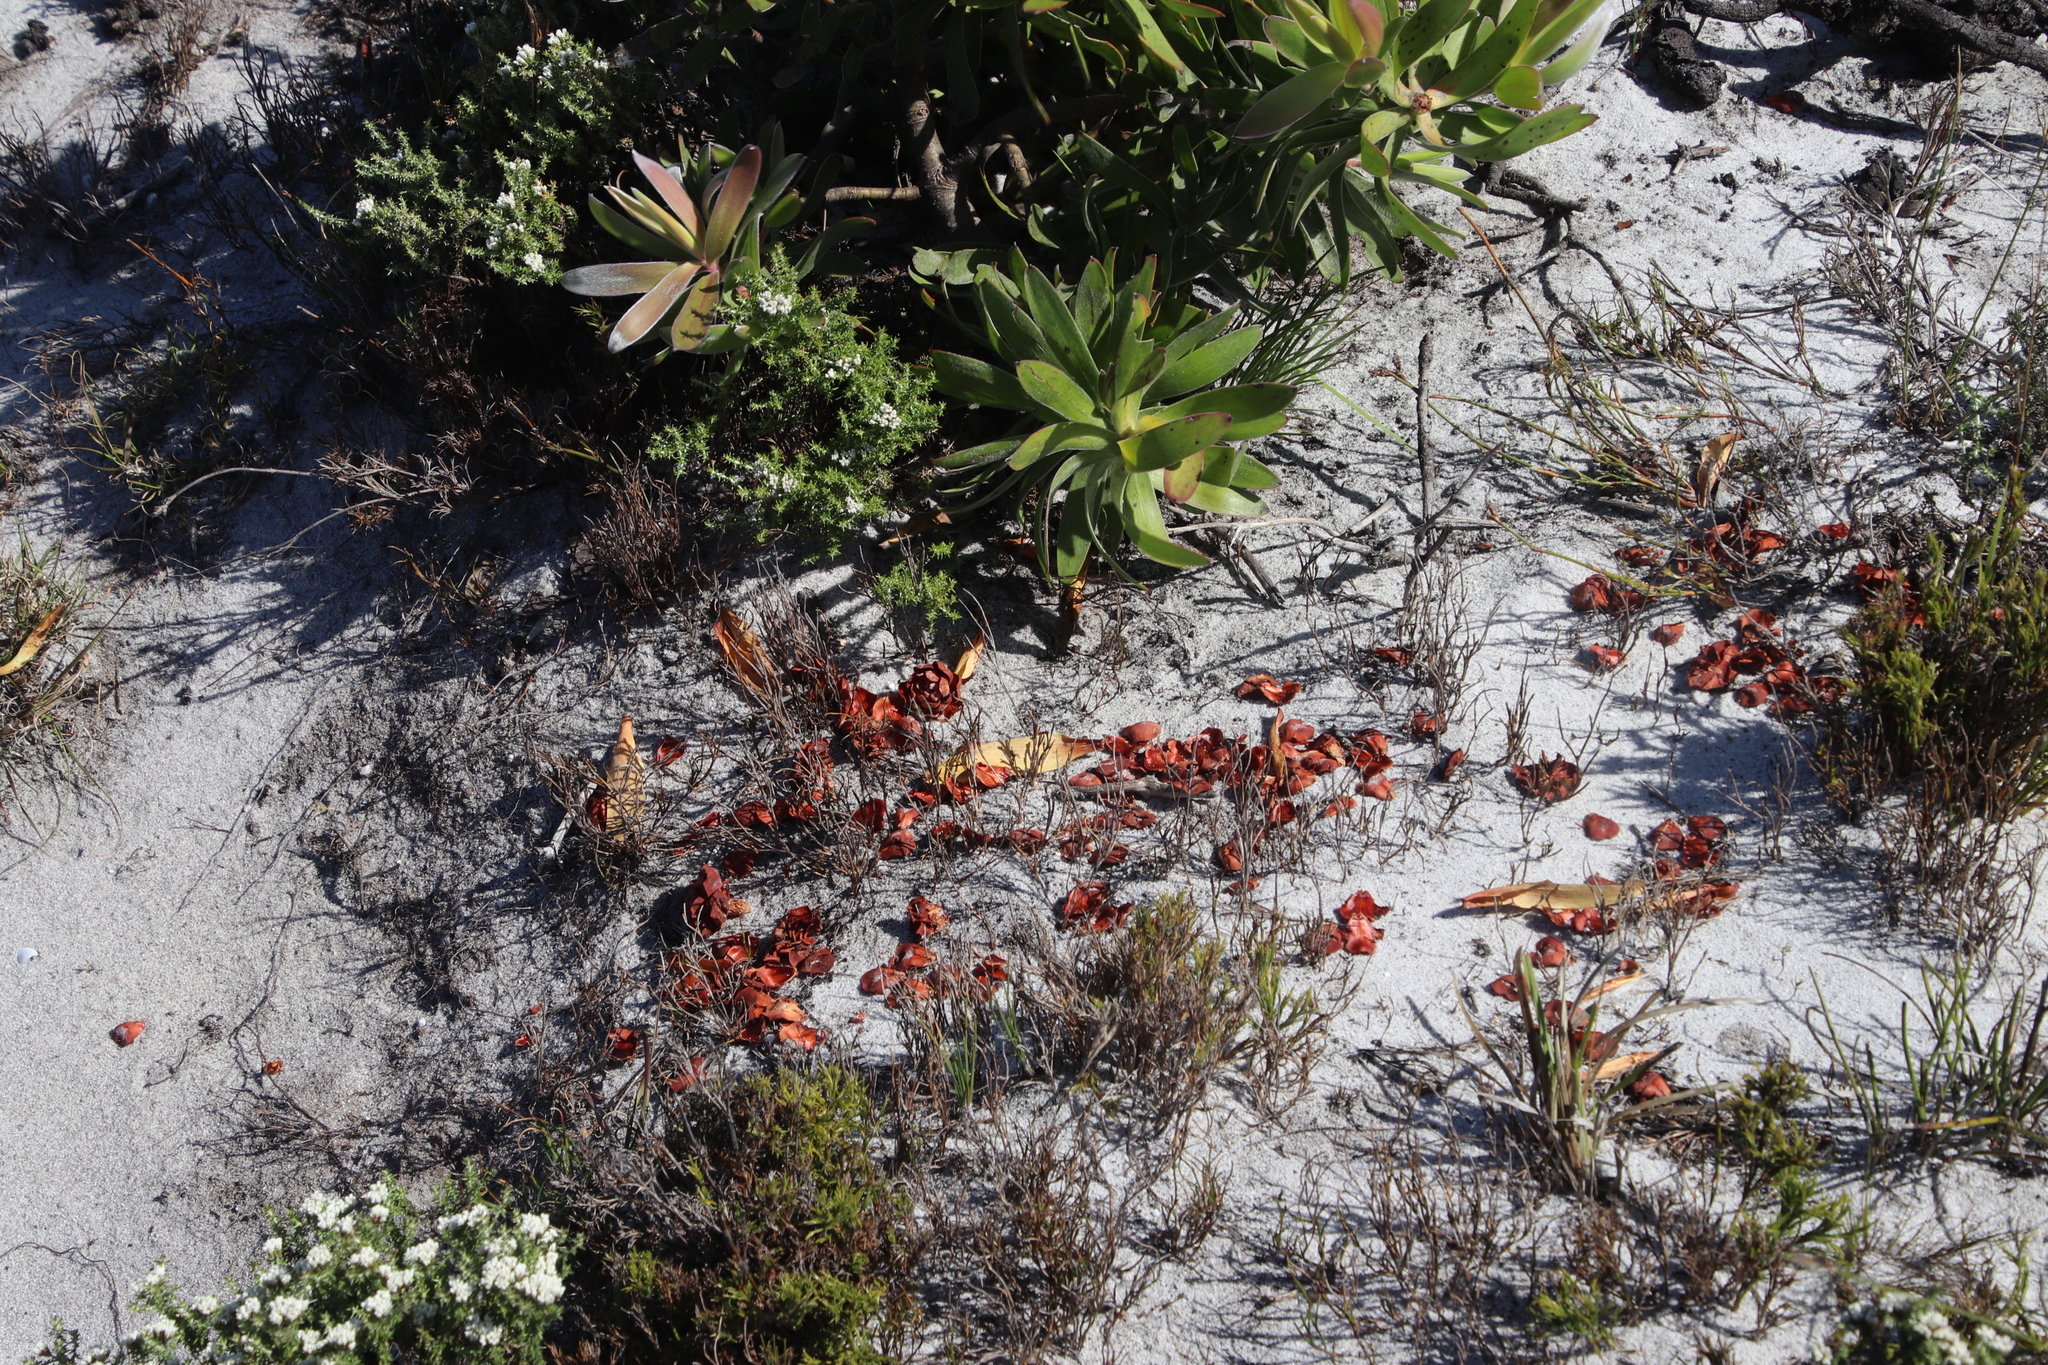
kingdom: Plantae
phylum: Tracheophyta
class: Magnoliopsida
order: Proteales
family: Proteaceae
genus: Leucadendron
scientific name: Leucadendron laureolum
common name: Golden sunshinebush
